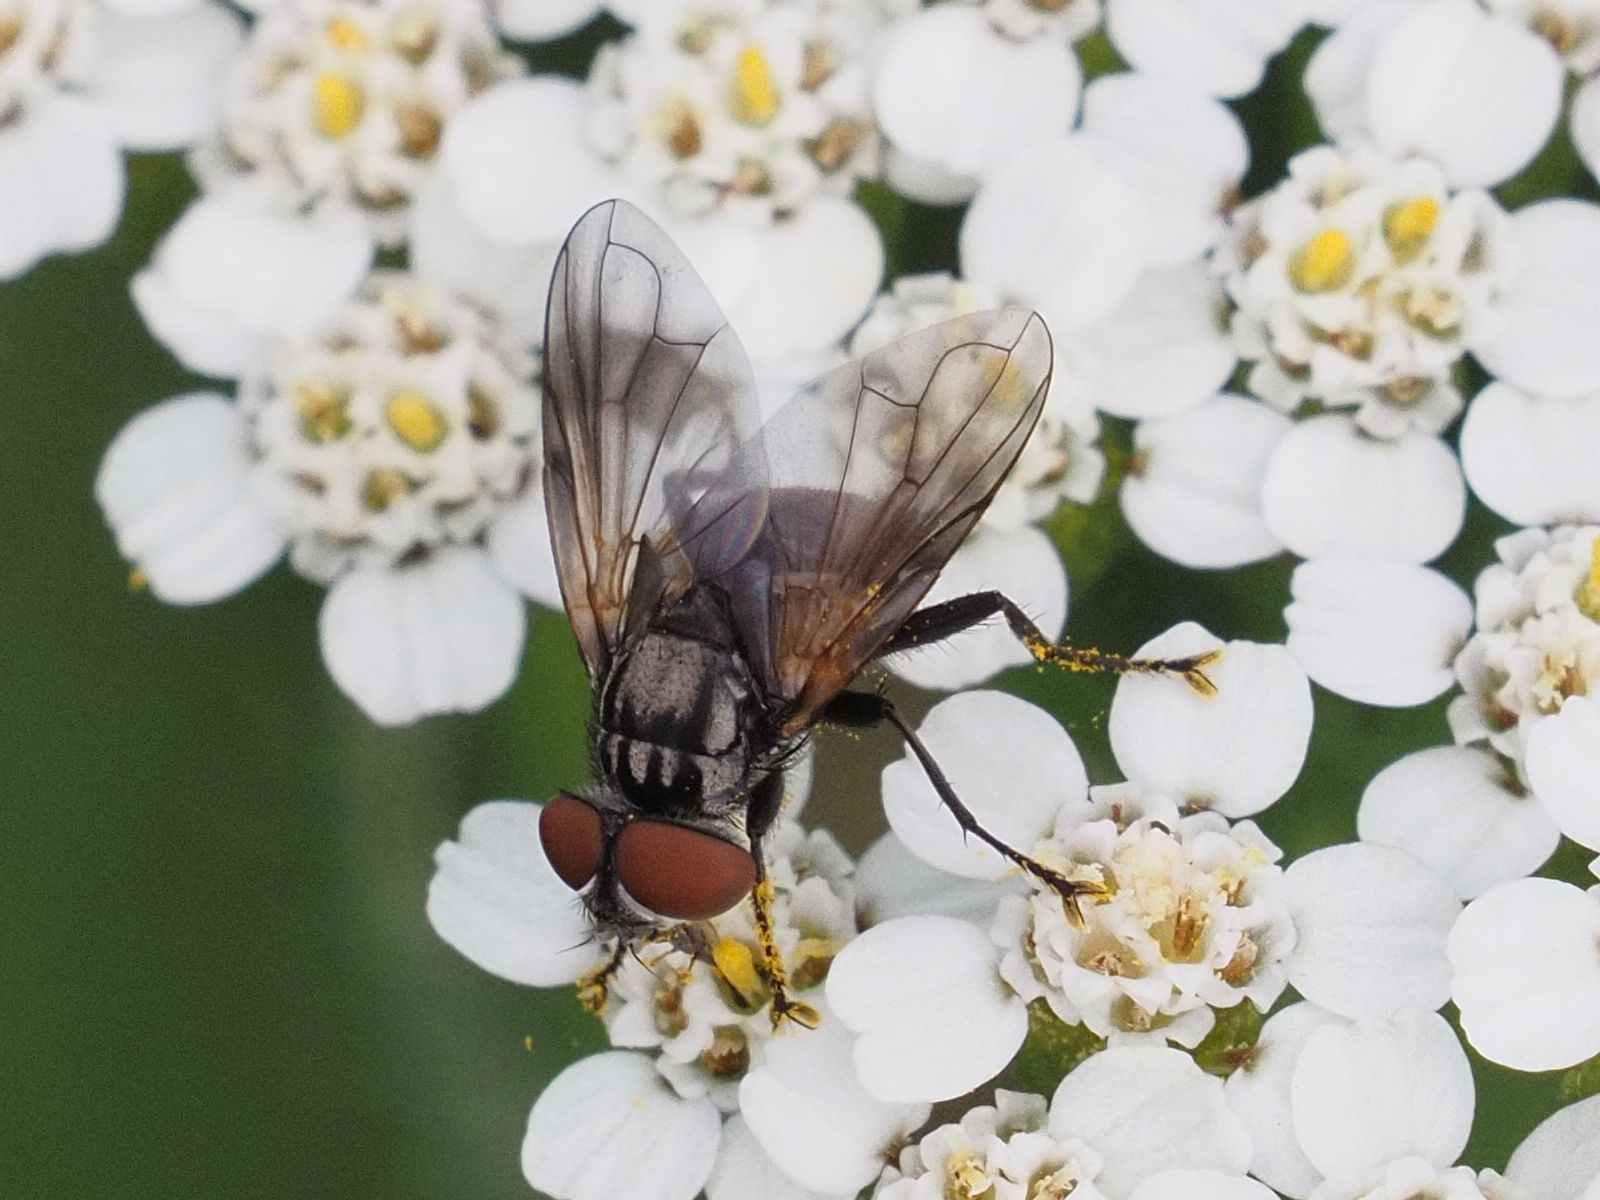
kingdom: Animalia
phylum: Arthropoda
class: Insecta
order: Diptera
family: Tachinidae
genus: Phasia
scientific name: Phasia obesa
